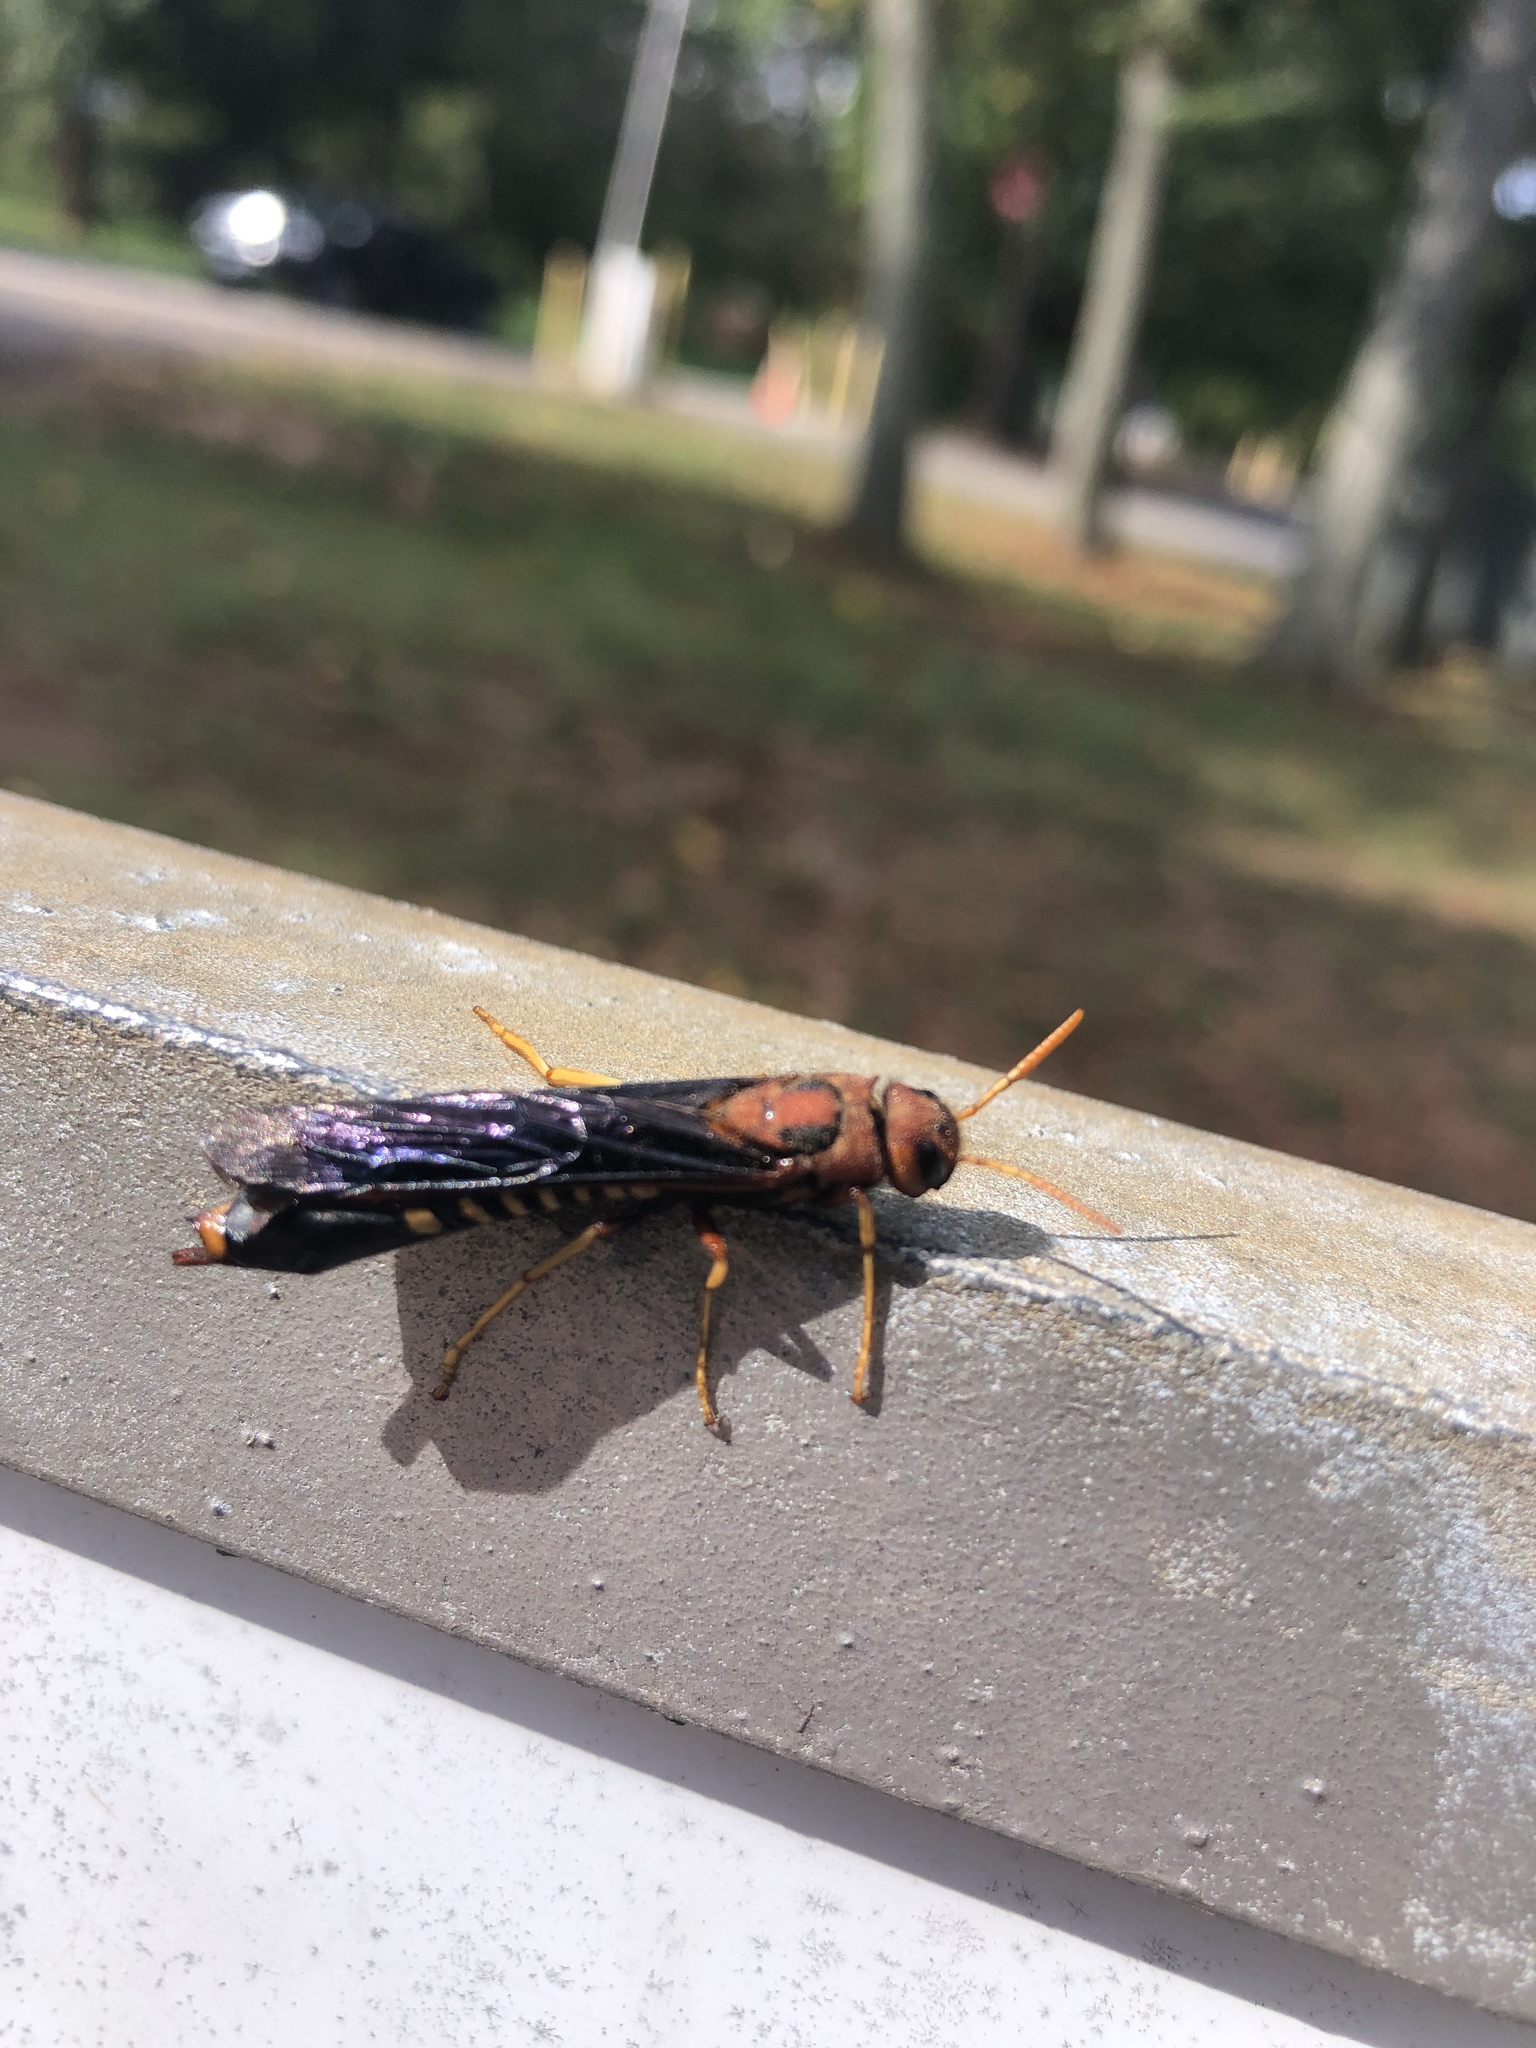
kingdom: Animalia
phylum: Arthropoda
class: Insecta
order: Hymenoptera
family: Siricidae
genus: Tremex
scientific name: Tremex columba
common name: Wasp
